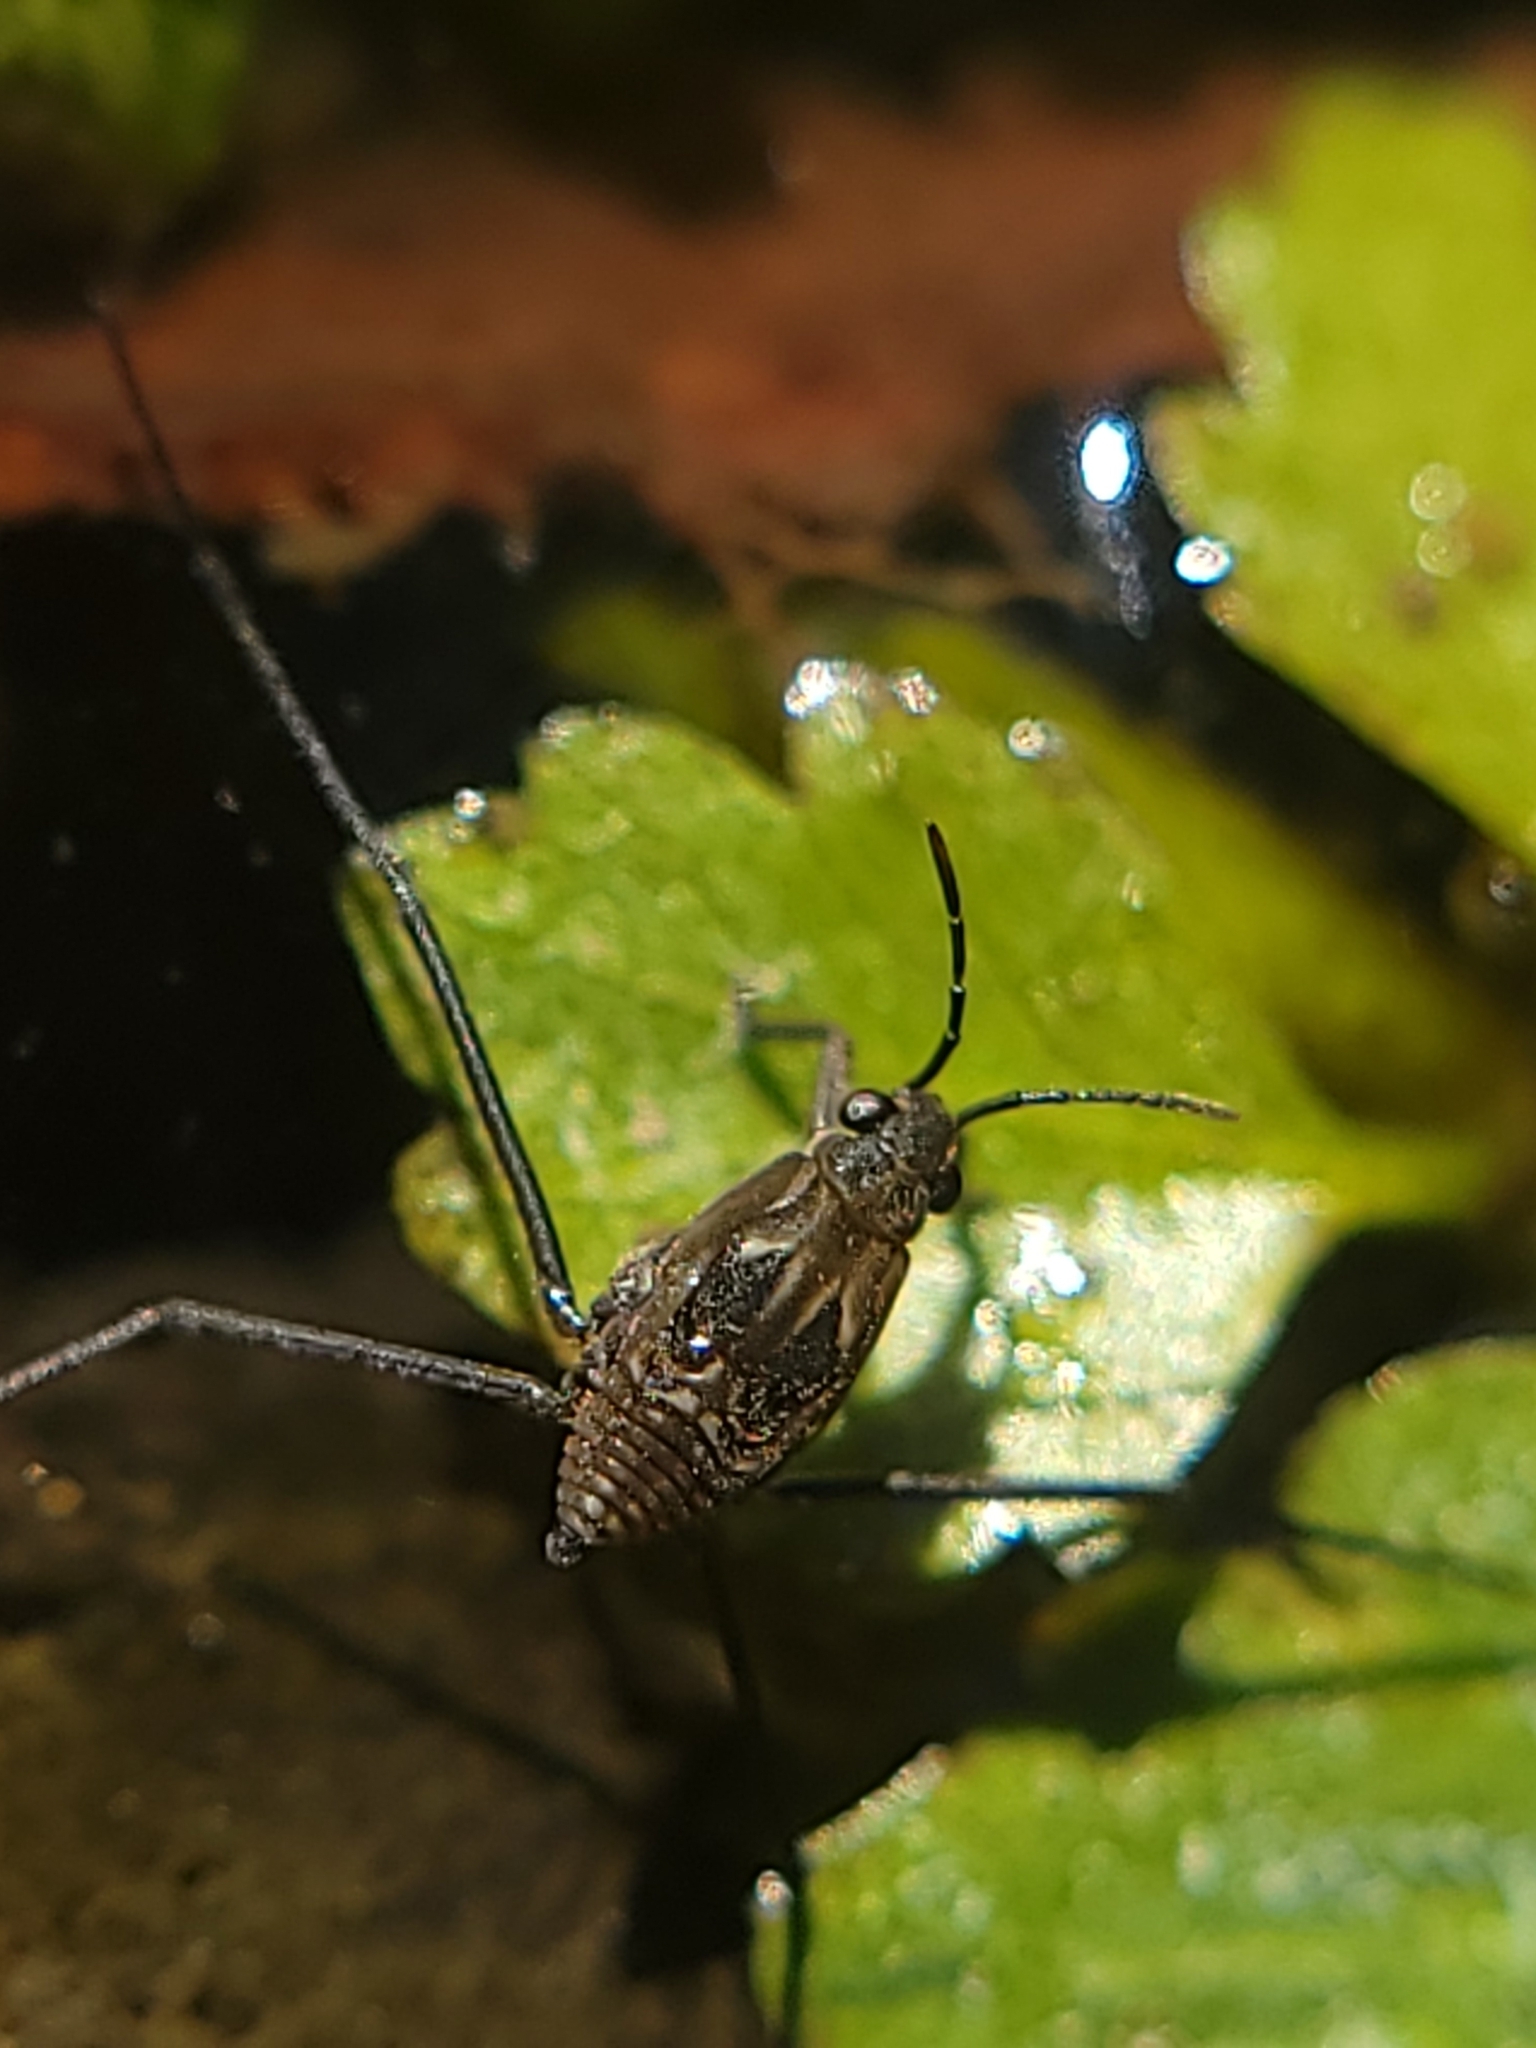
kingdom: Animalia
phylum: Arthropoda
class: Insecta
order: Hemiptera
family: Gerridae
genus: Aquarius
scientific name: Aquarius remigis
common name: Common water strider
